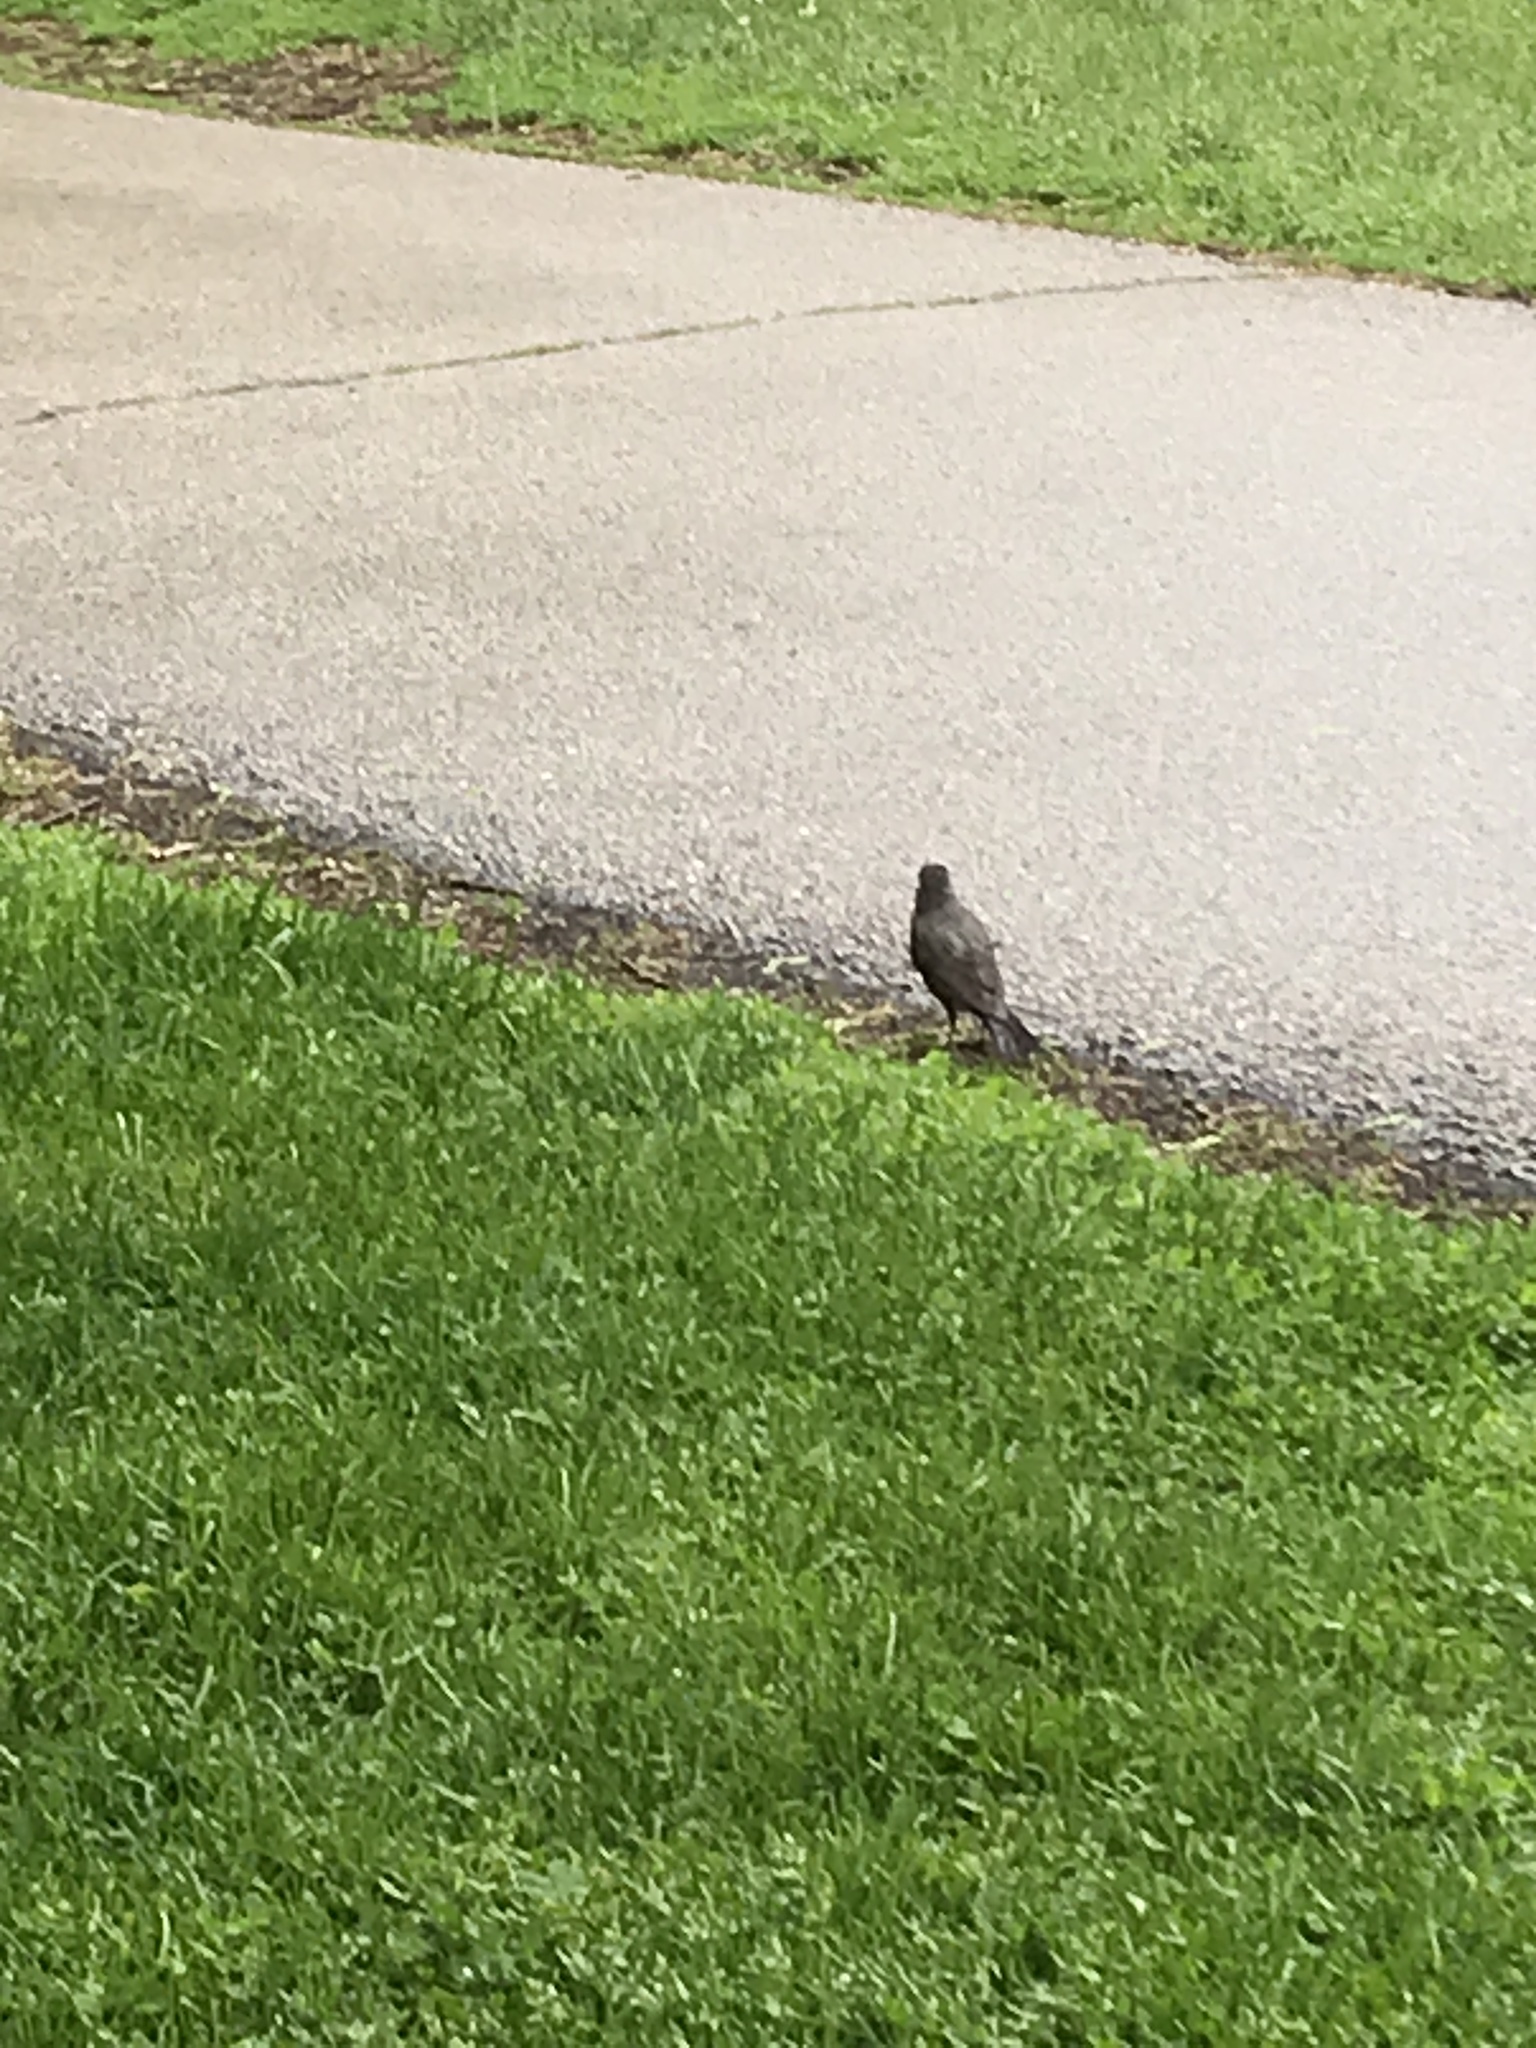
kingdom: Animalia
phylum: Chordata
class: Aves
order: Passeriformes
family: Turdidae
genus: Turdus
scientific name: Turdus migratorius
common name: American robin
